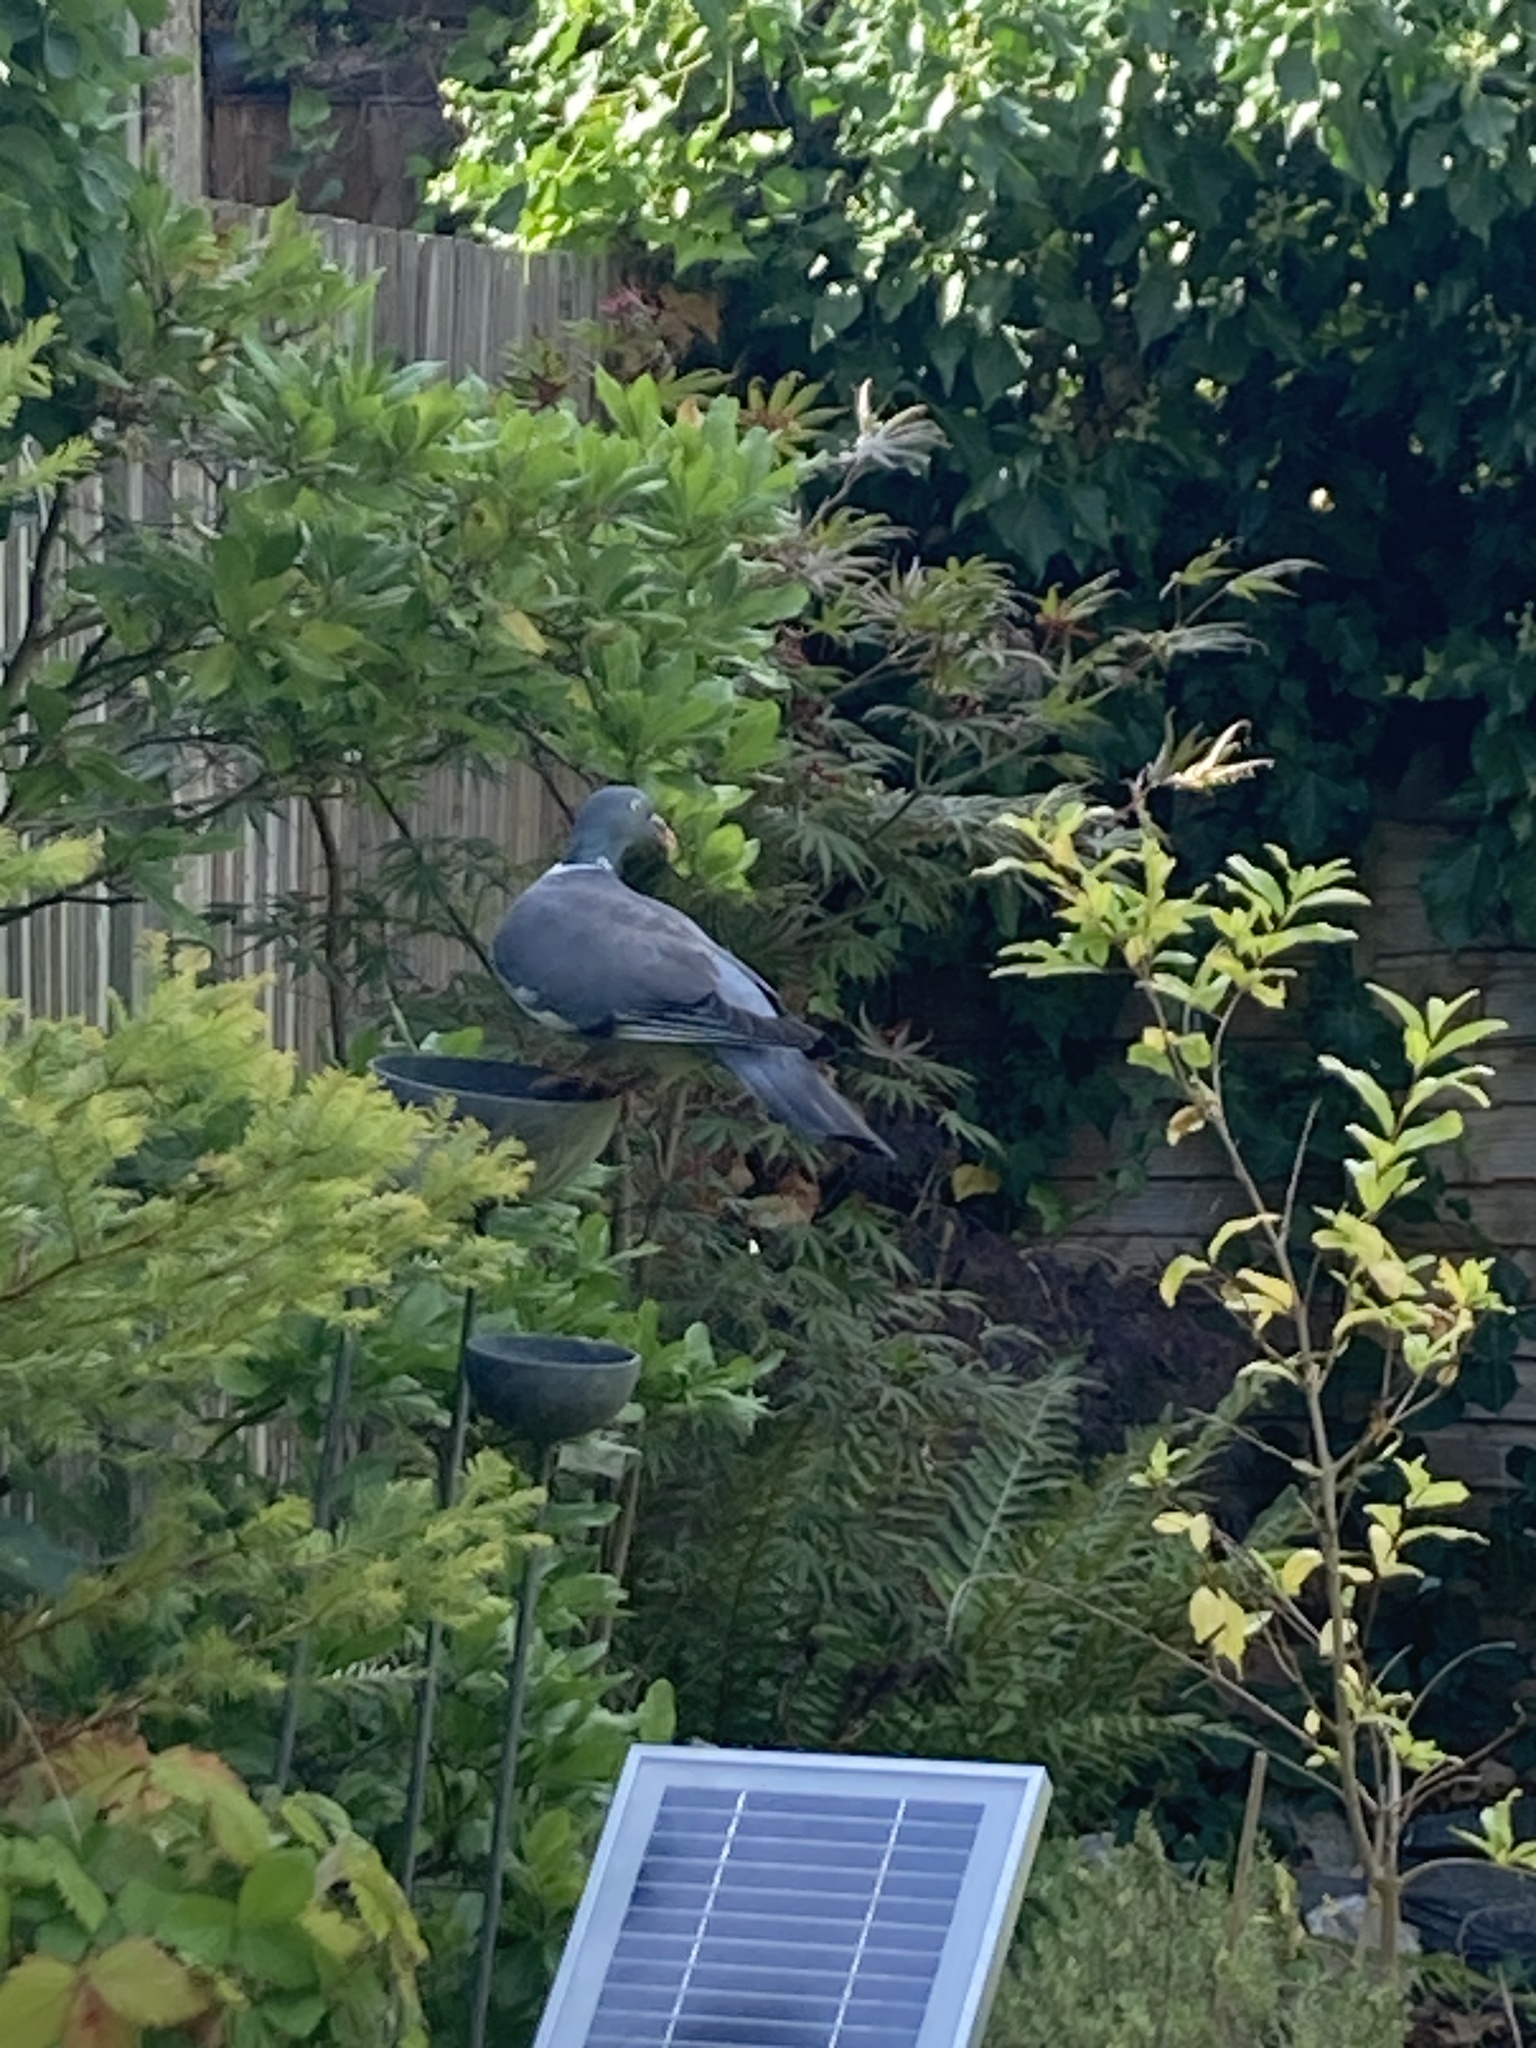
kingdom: Animalia
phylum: Chordata
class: Aves
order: Columbiformes
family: Columbidae
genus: Columba
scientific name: Columba palumbus
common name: Common wood pigeon
